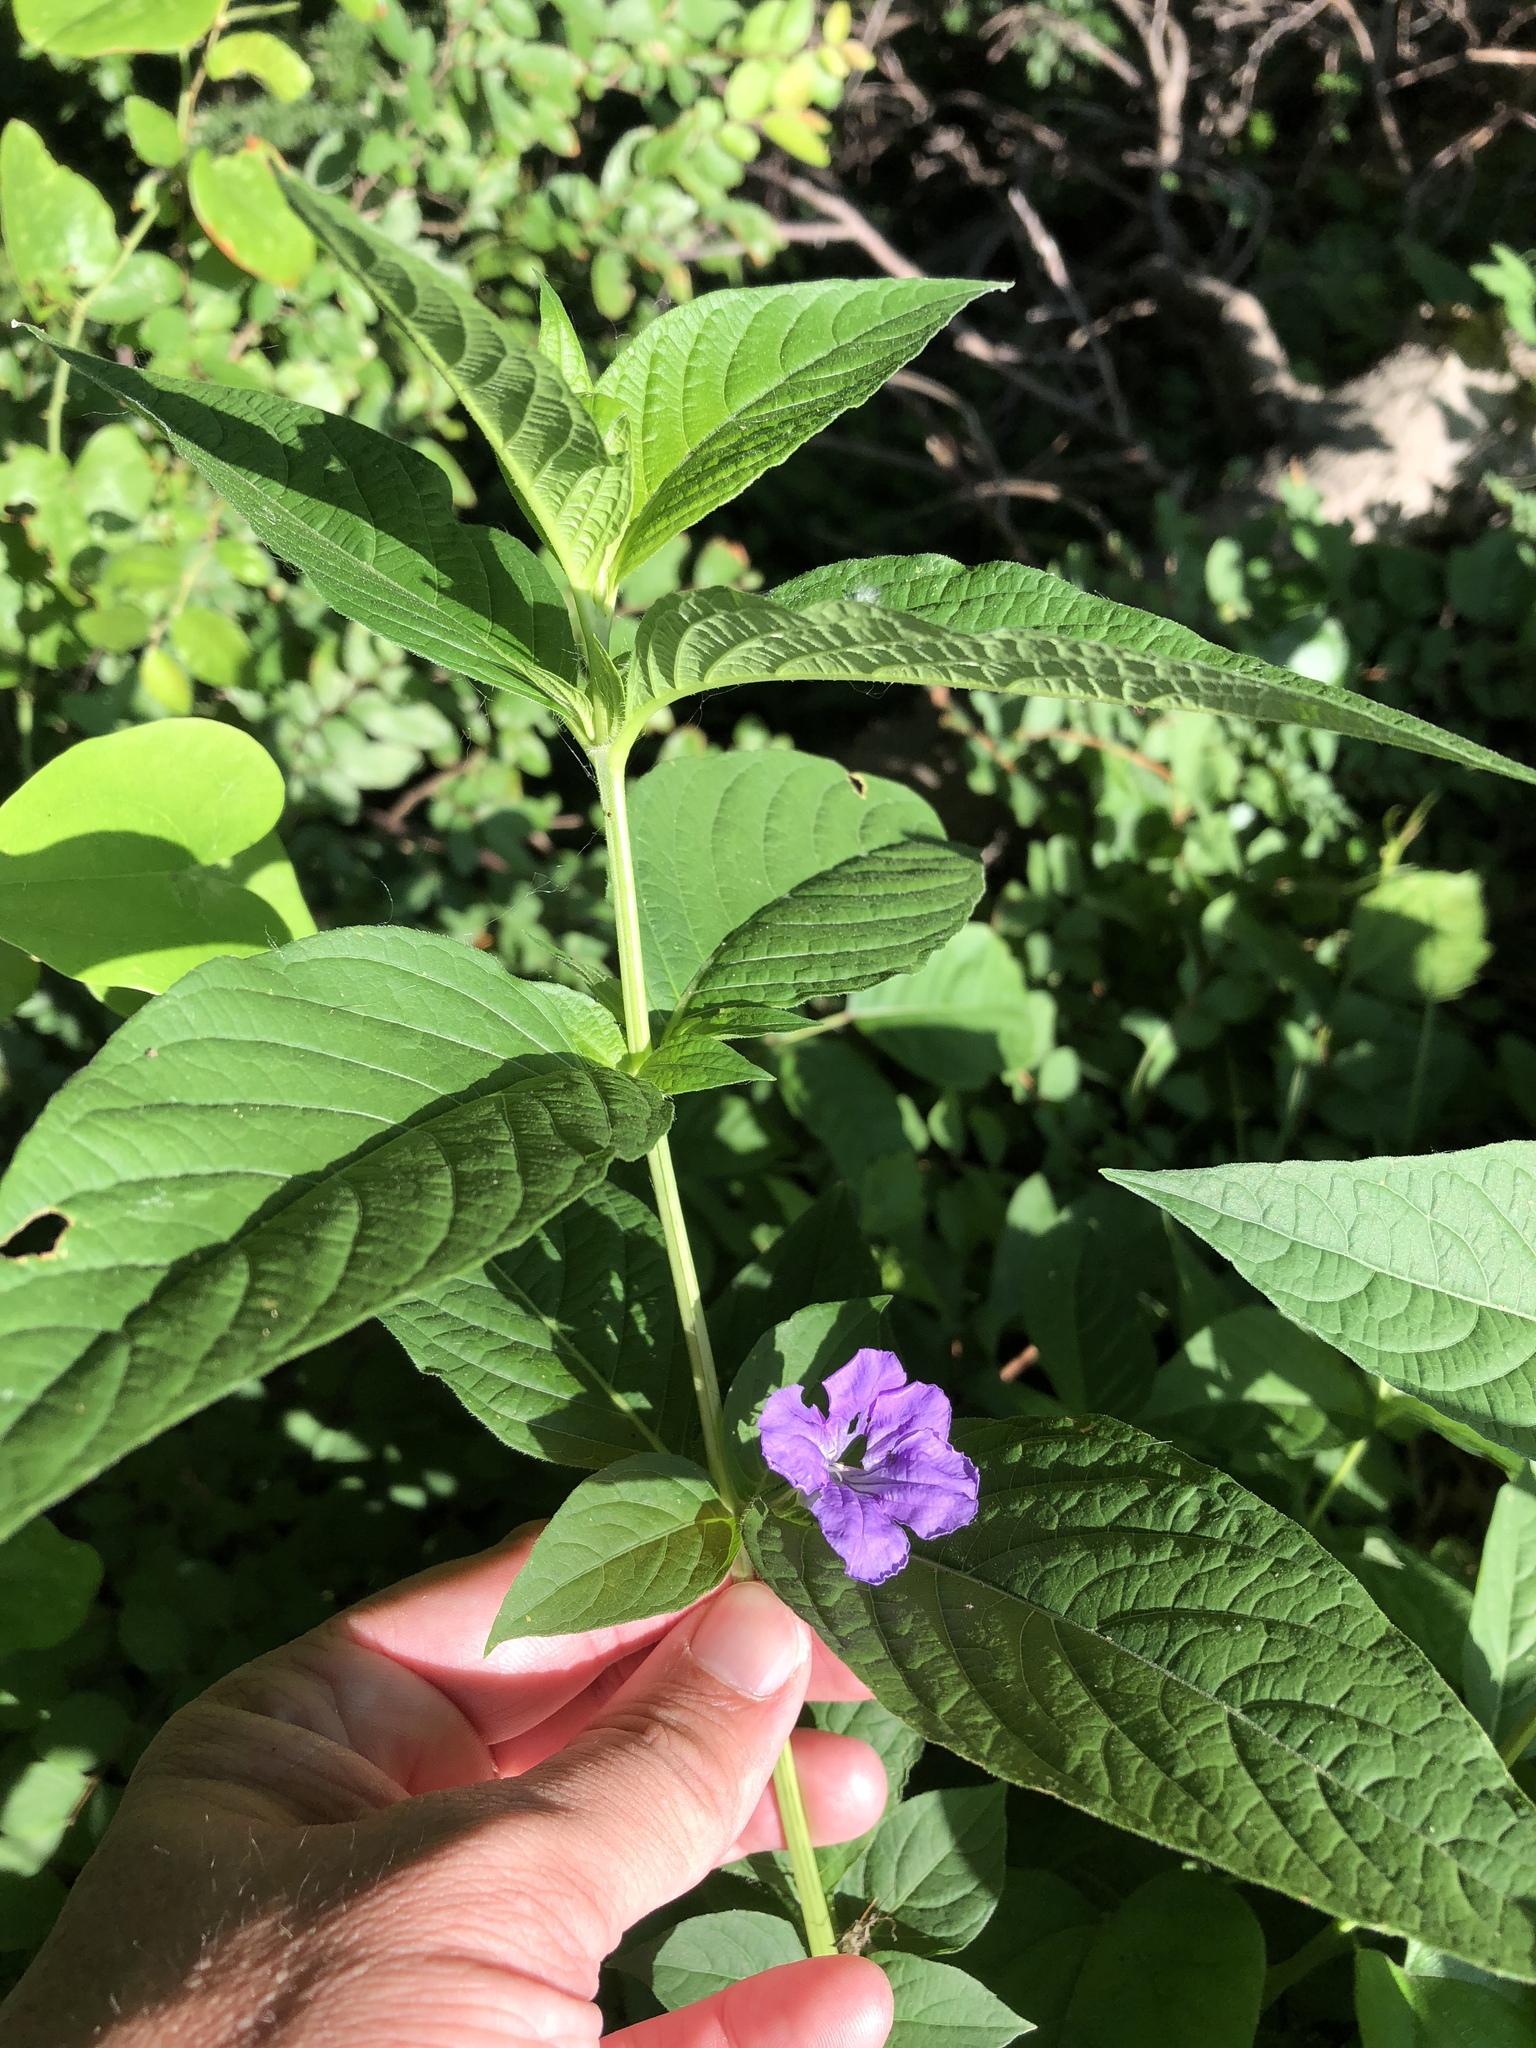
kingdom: Plantae
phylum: Tracheophyta
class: Magnoliopsida
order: Lamiales
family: Acanthaceae
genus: Ruellia
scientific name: Ruellia strepens
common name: Limestone wild petunia
